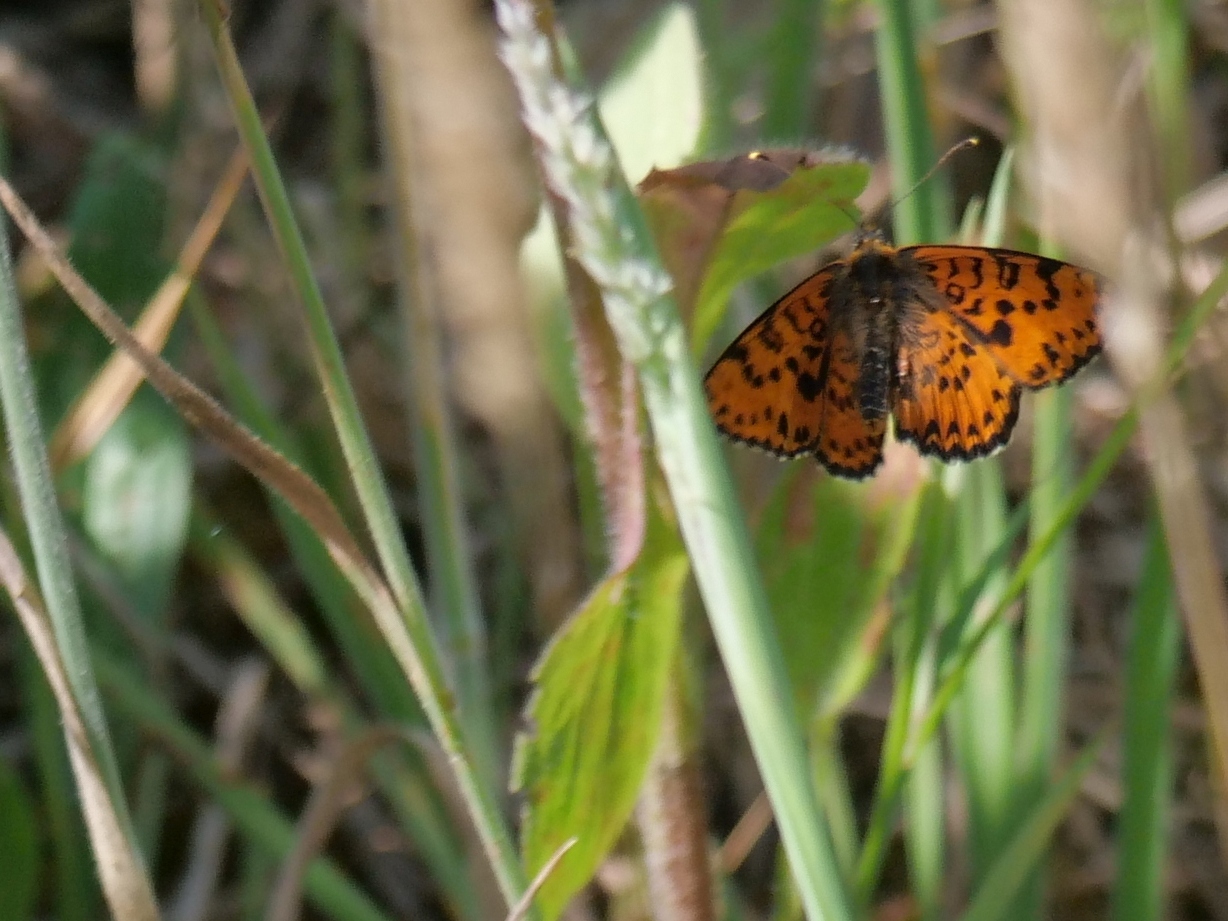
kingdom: Animalia
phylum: Arthropoda
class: Insecta
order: Lepidoptera
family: Nymphalidae
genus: Melitaea
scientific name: Melitaea didyma
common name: Spotted fritillary
